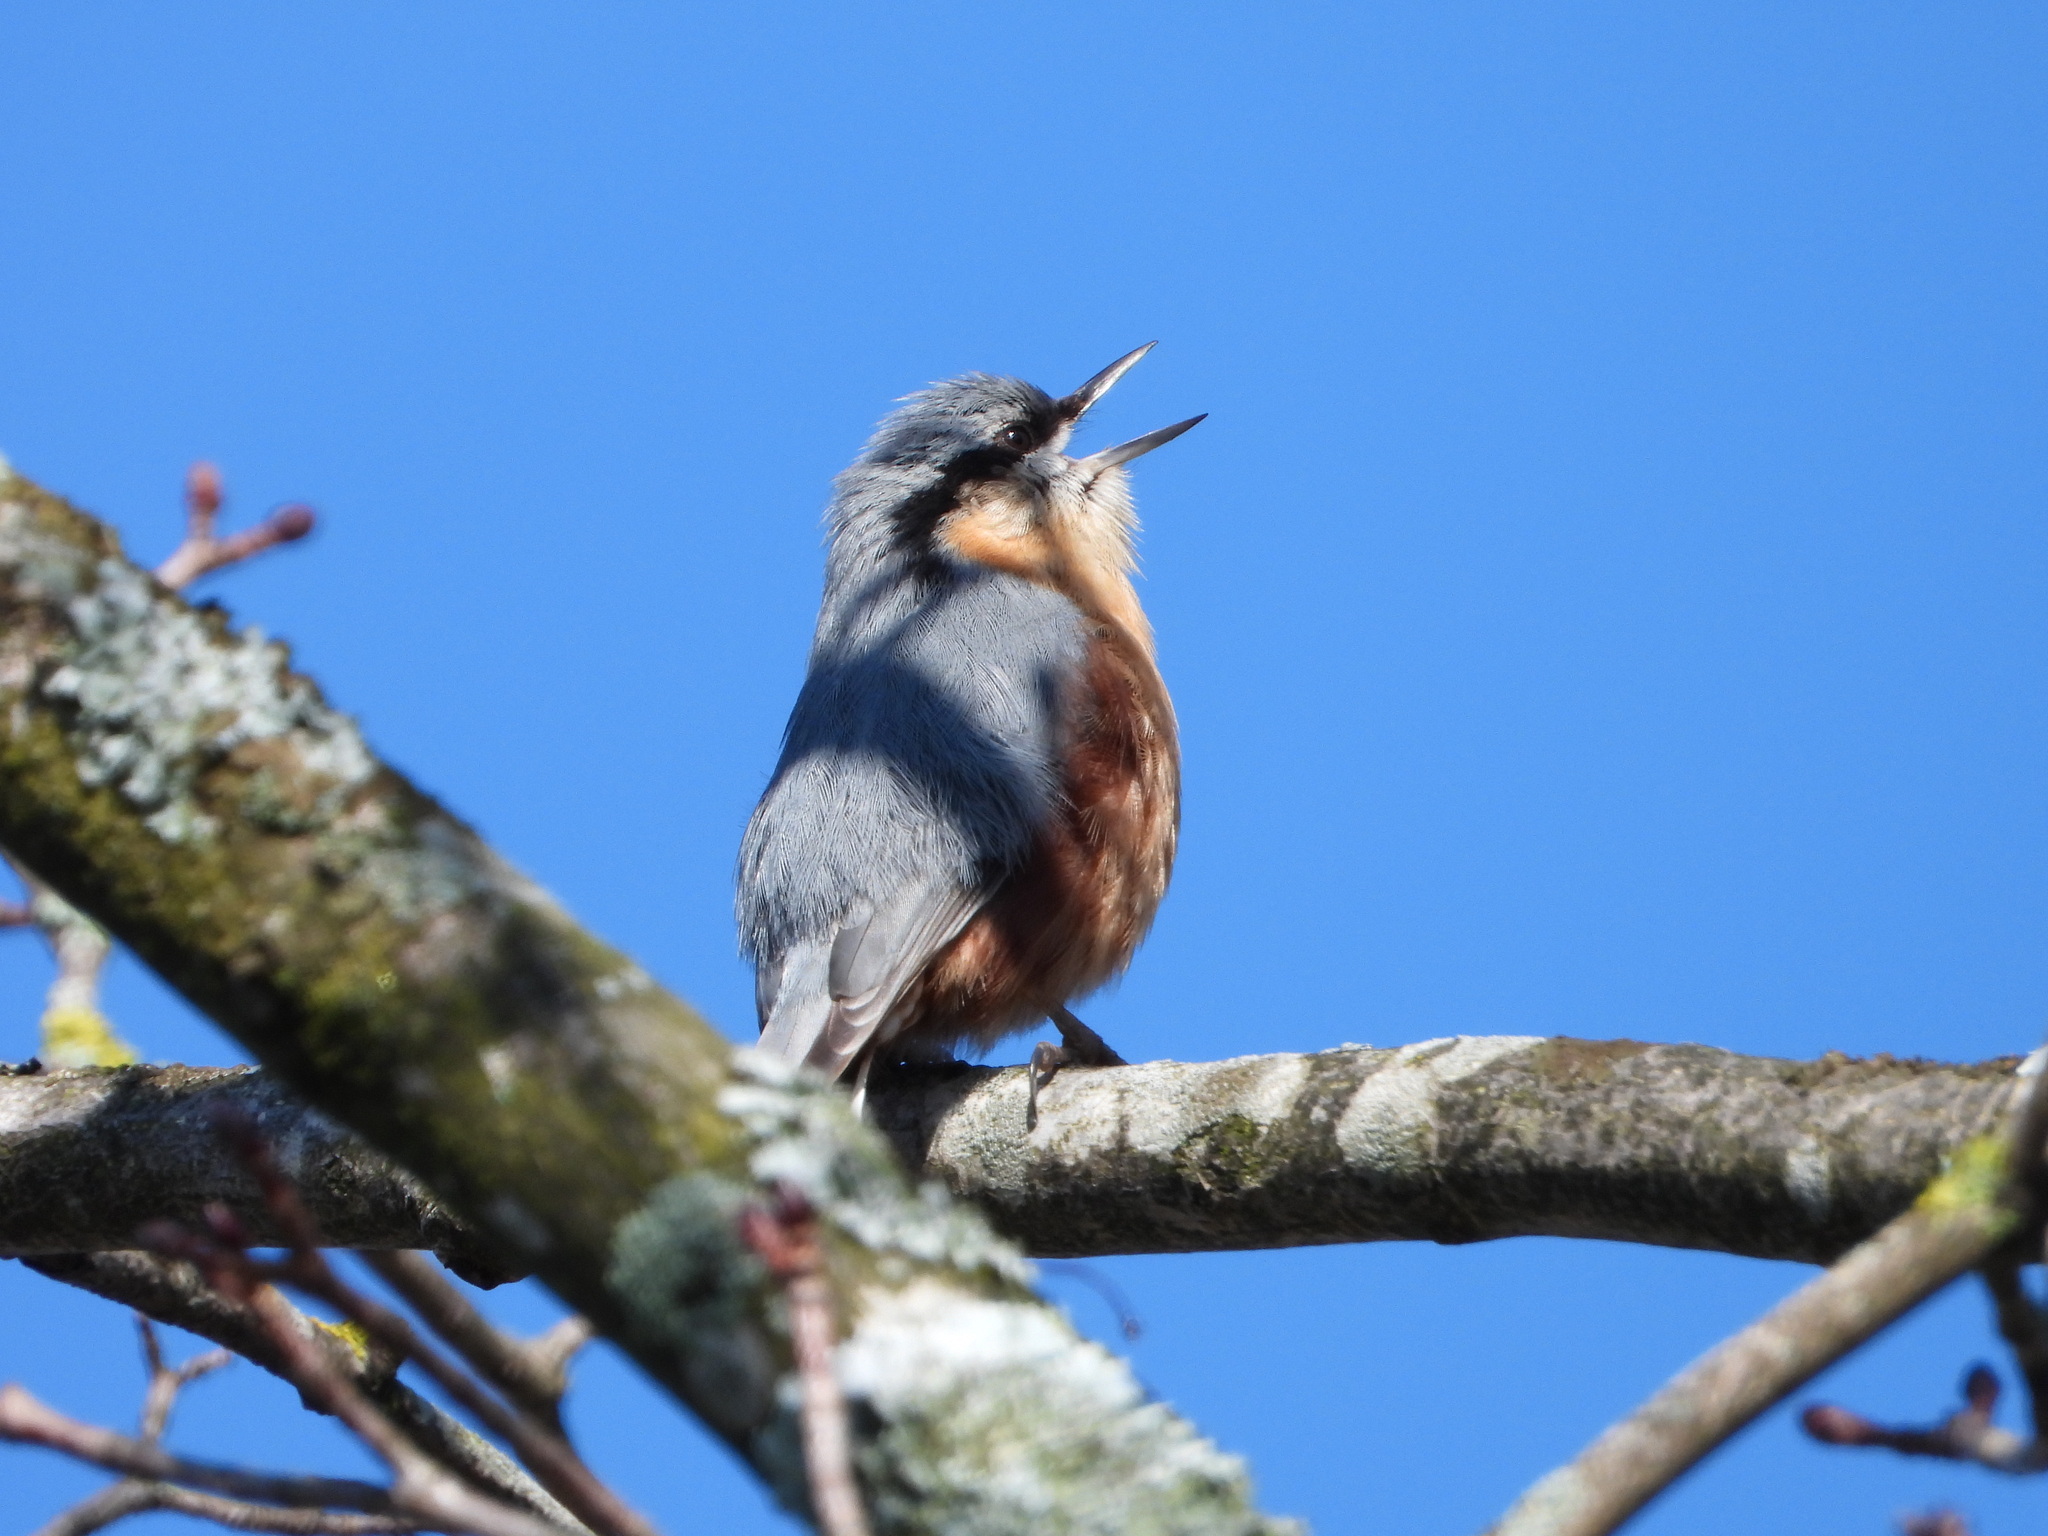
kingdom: Animalia
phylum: Chordata
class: Aves
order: Passeriformes
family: Sittidae
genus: Sitta
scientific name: Sitta europaea
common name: Eurasian nuthatch
